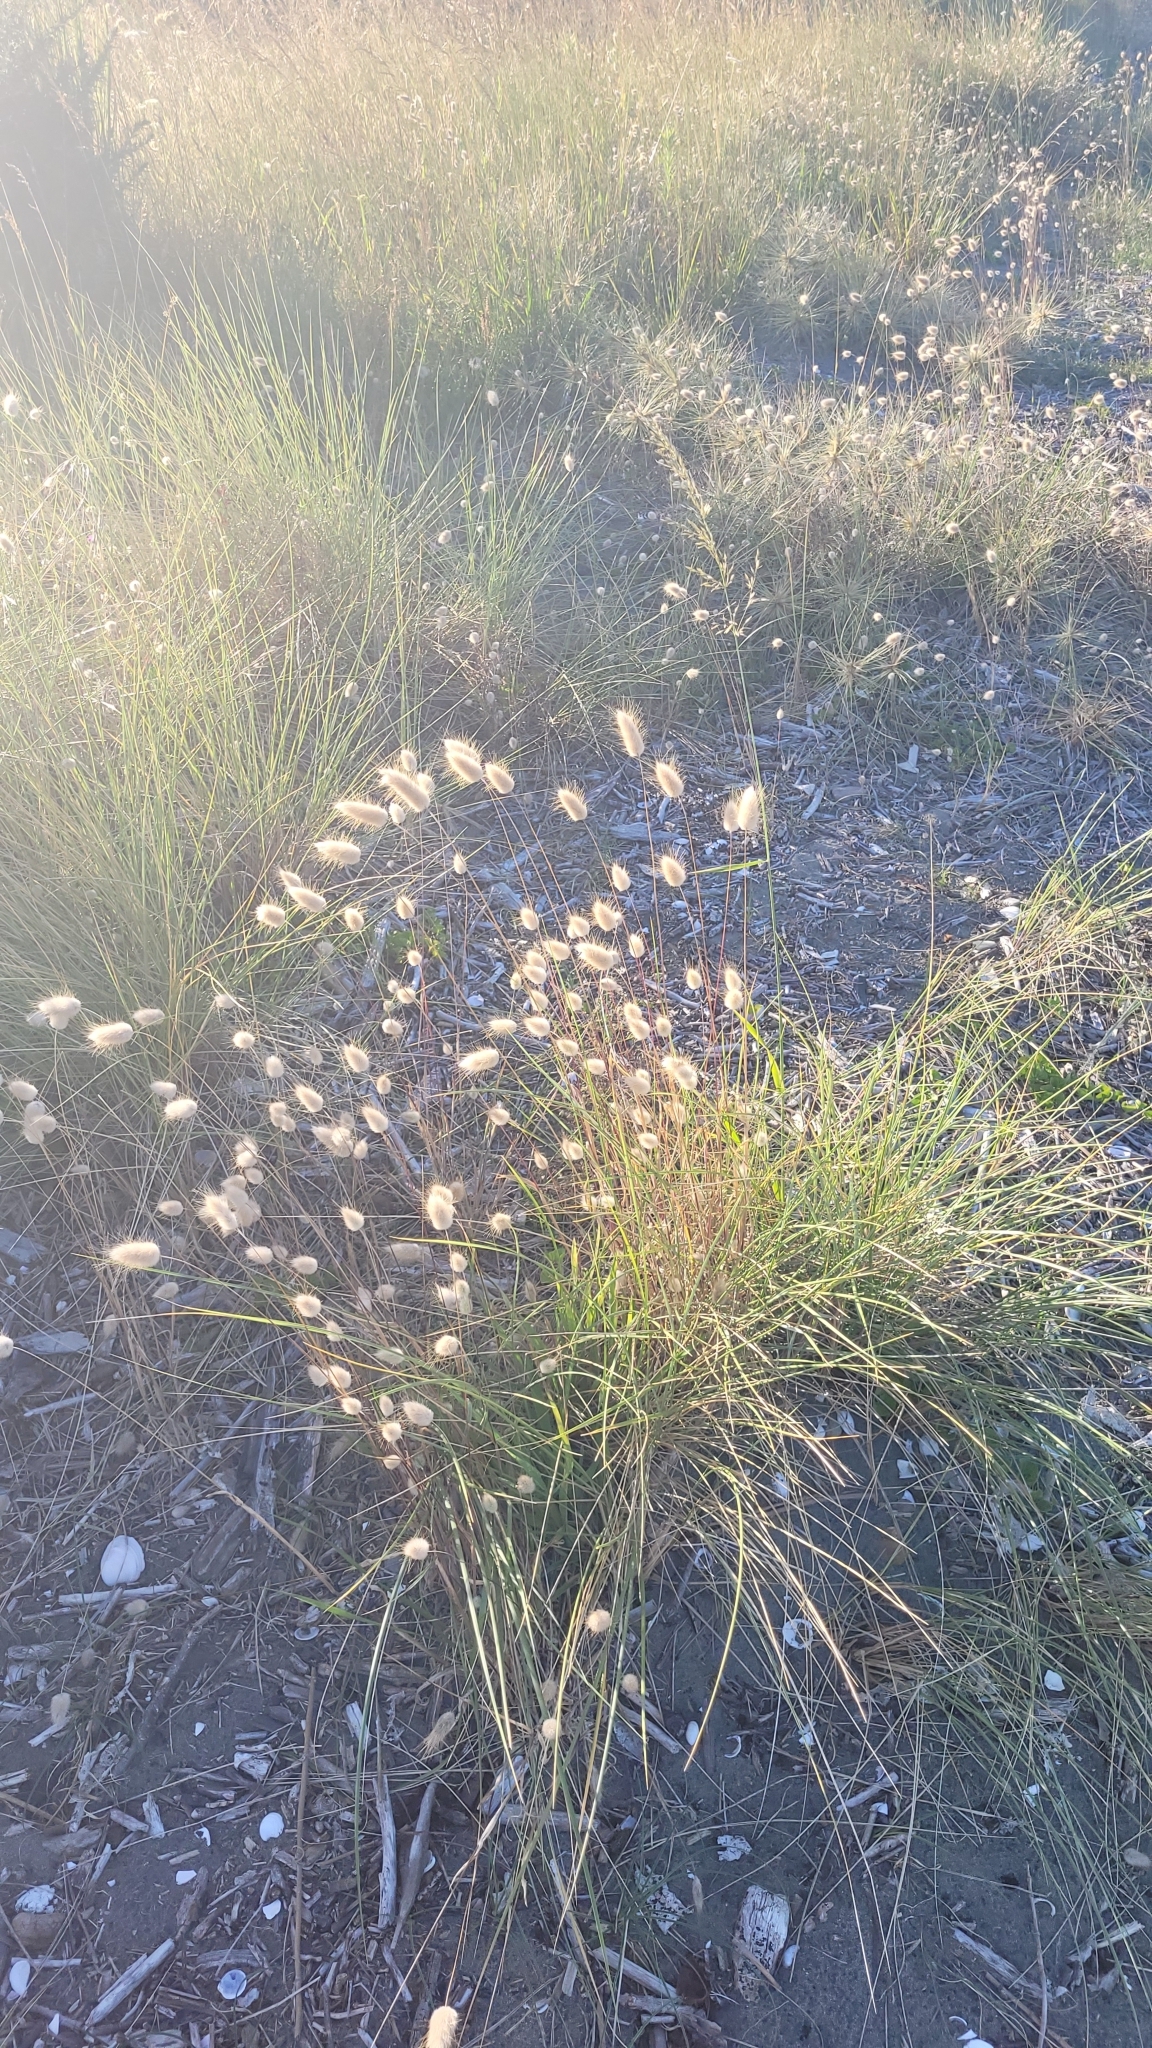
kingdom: Plantae
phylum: Tracheophyta
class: Liliopsida
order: Poales
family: Poaceae
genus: Lagurus
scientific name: Lagurus ovatus
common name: Hare's-tail
